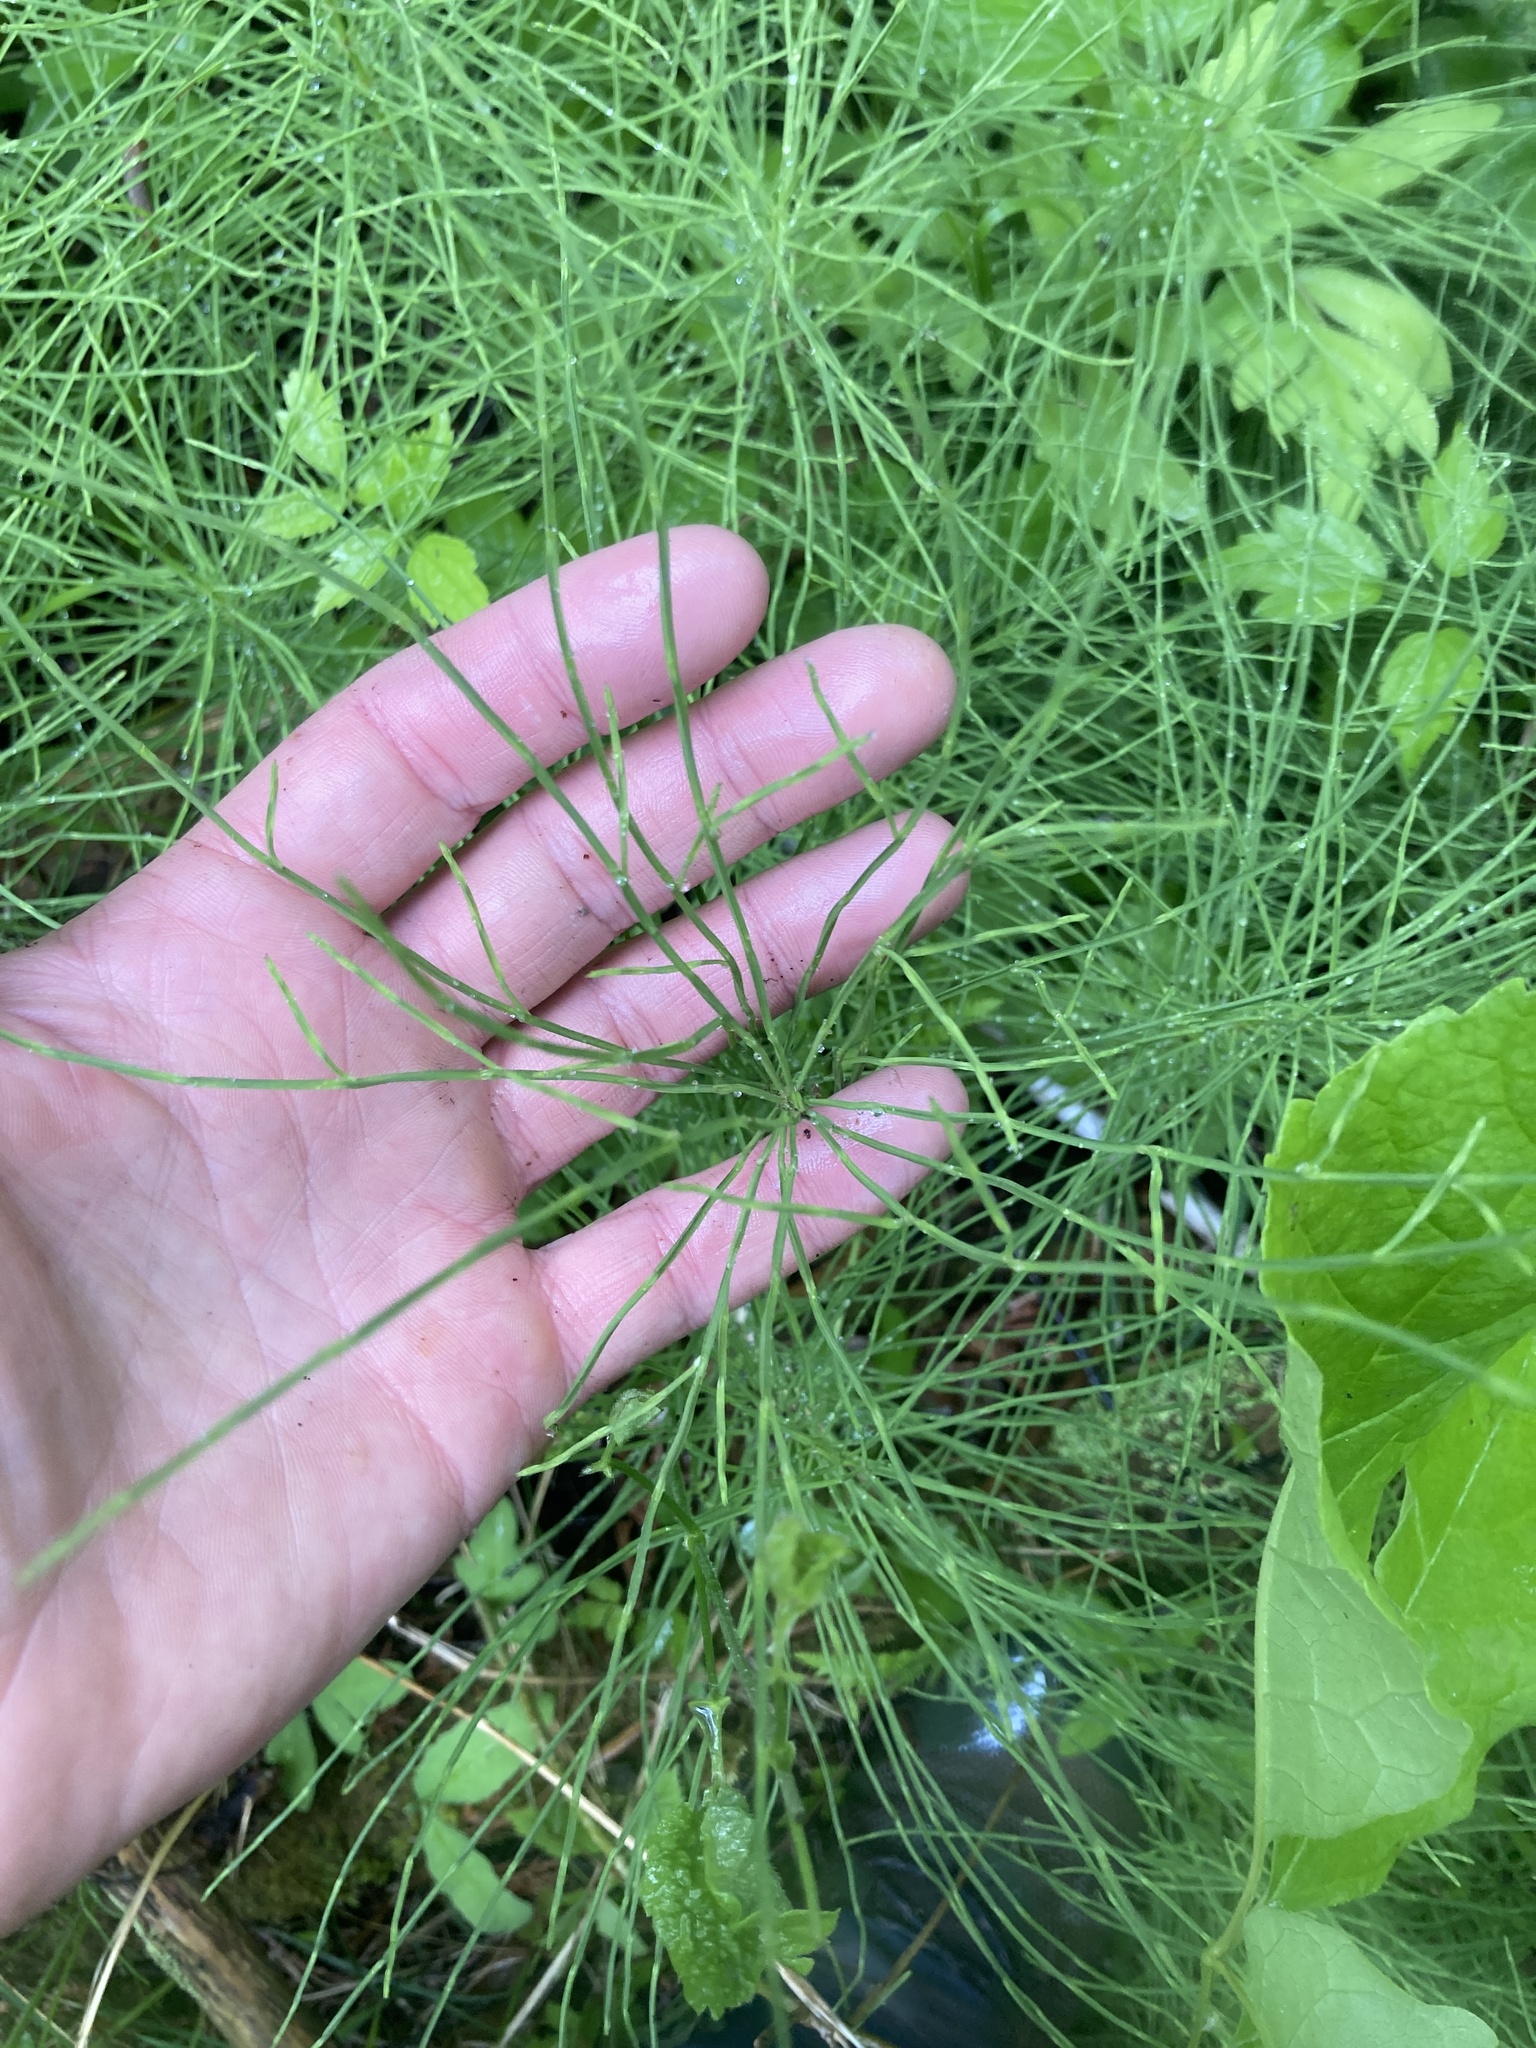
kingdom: Plantae
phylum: Tracheophyta
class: Polypodiopsida
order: Equisetales
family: Equisetaceae
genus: Equisetum
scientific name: Equisetum arvense
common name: Field horsetail
